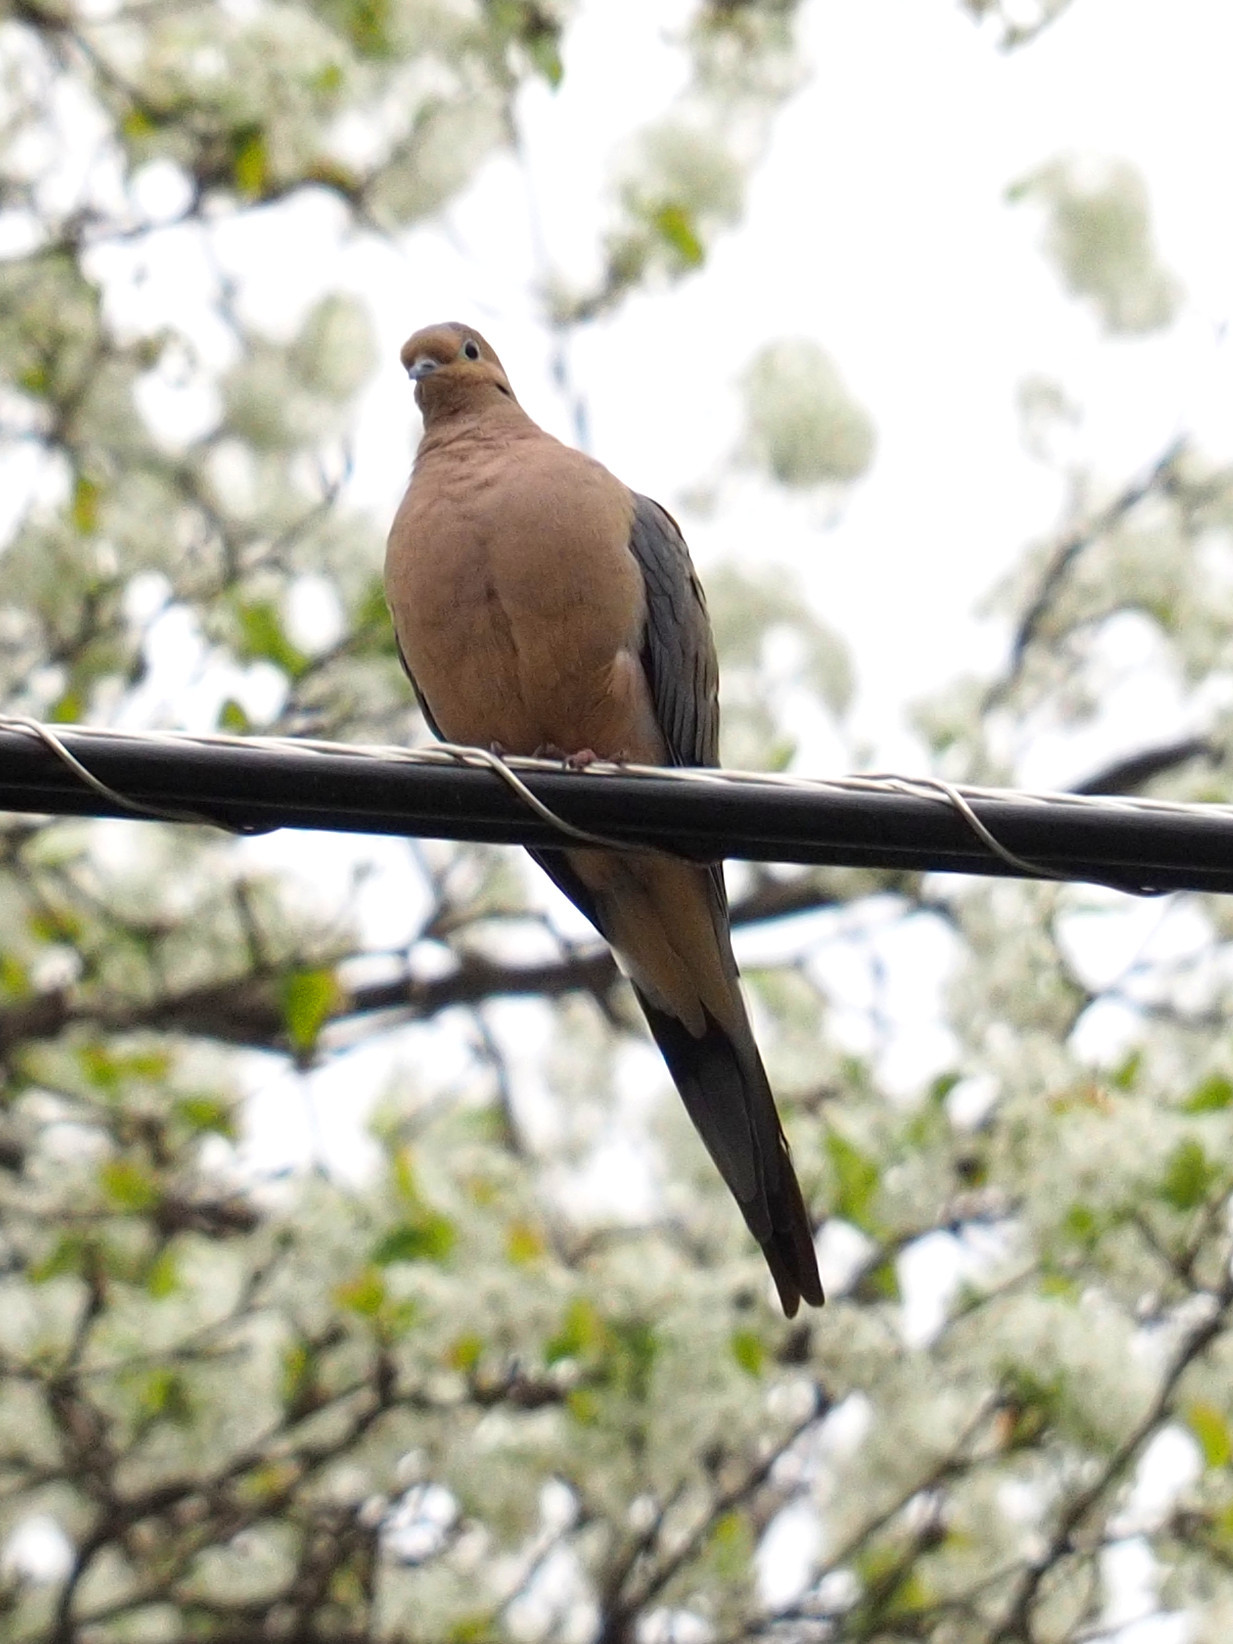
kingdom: Animalia
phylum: Chordata
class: Aves
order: Columbiformes
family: Columbidae
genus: Zenaida
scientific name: Zenaida macroura
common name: Mourning dove
